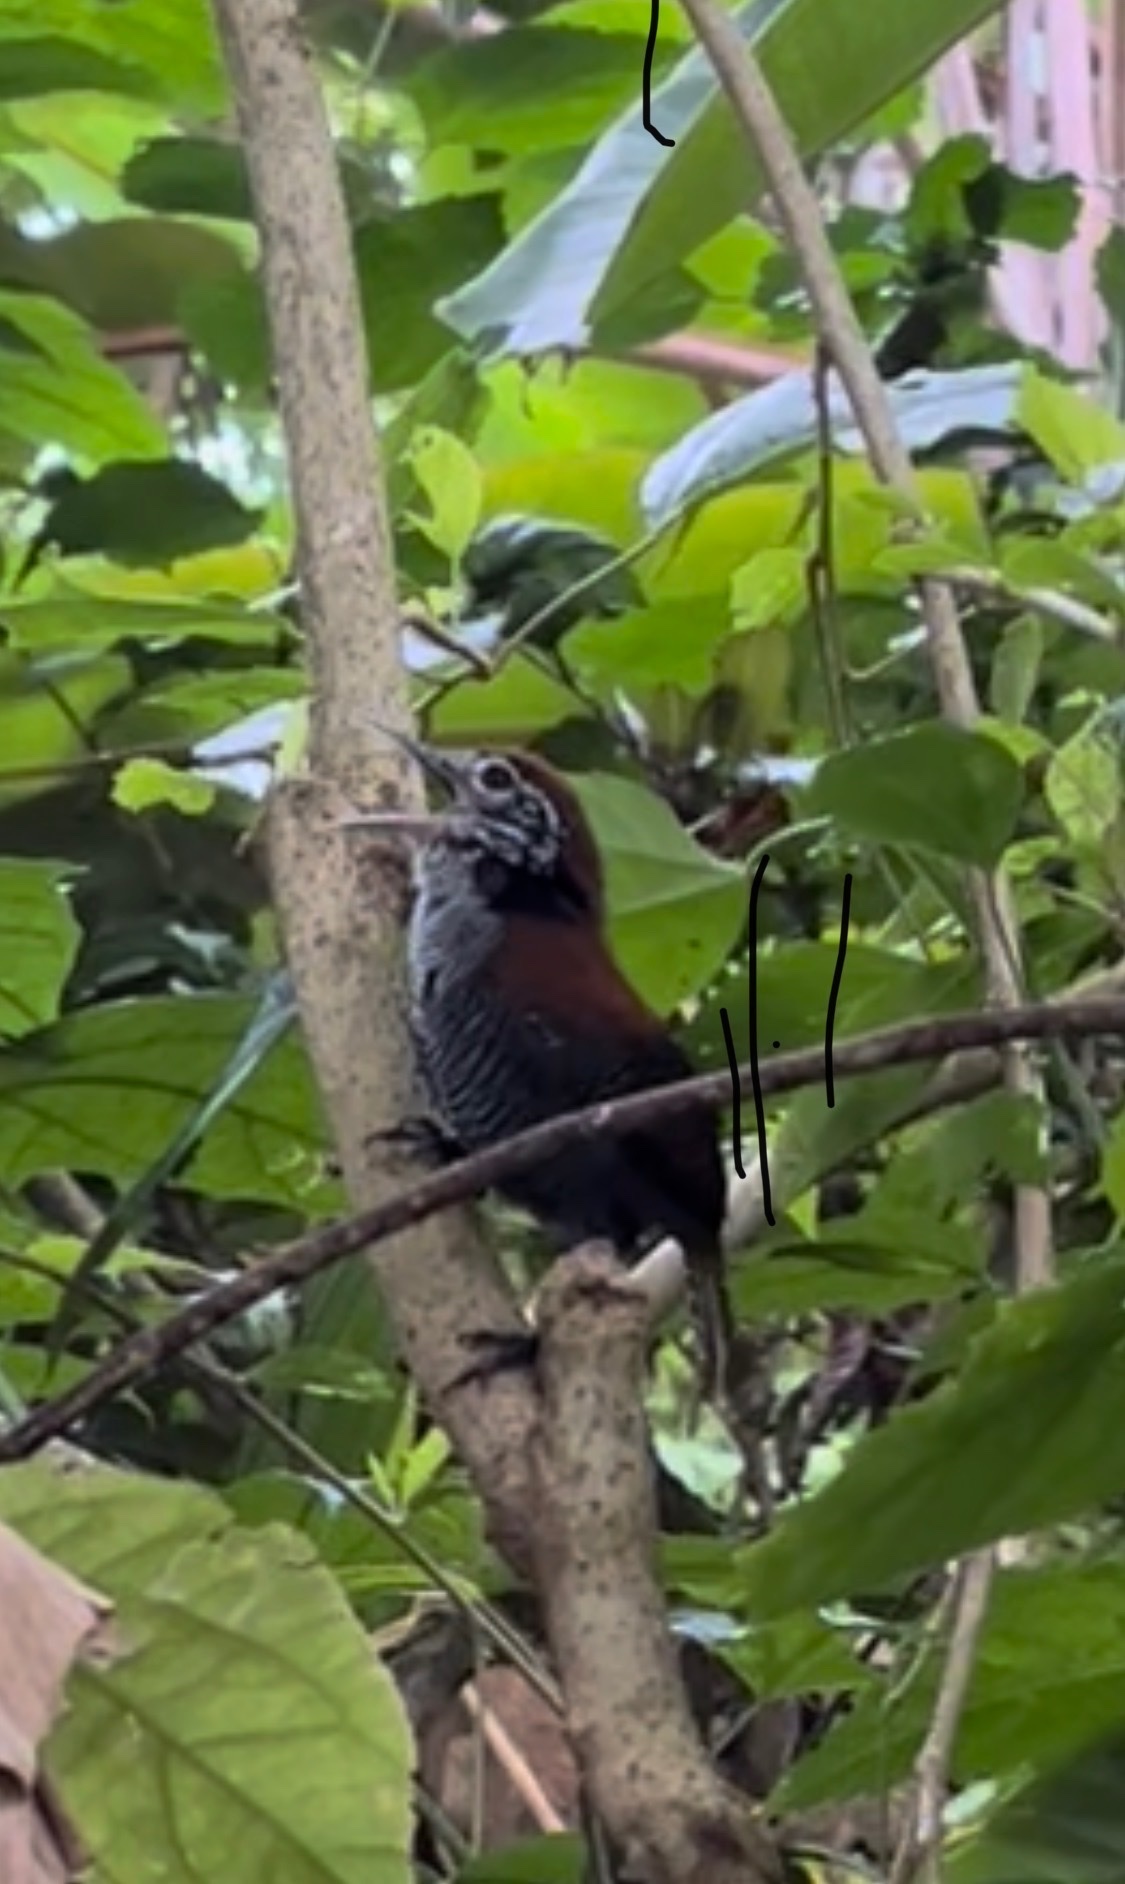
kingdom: Animalia
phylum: Chordata
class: Aves
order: Passeriformes
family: Troglodytidae
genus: Cantorchilus
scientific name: Cantorchilus semibadius
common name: Riverside wren
